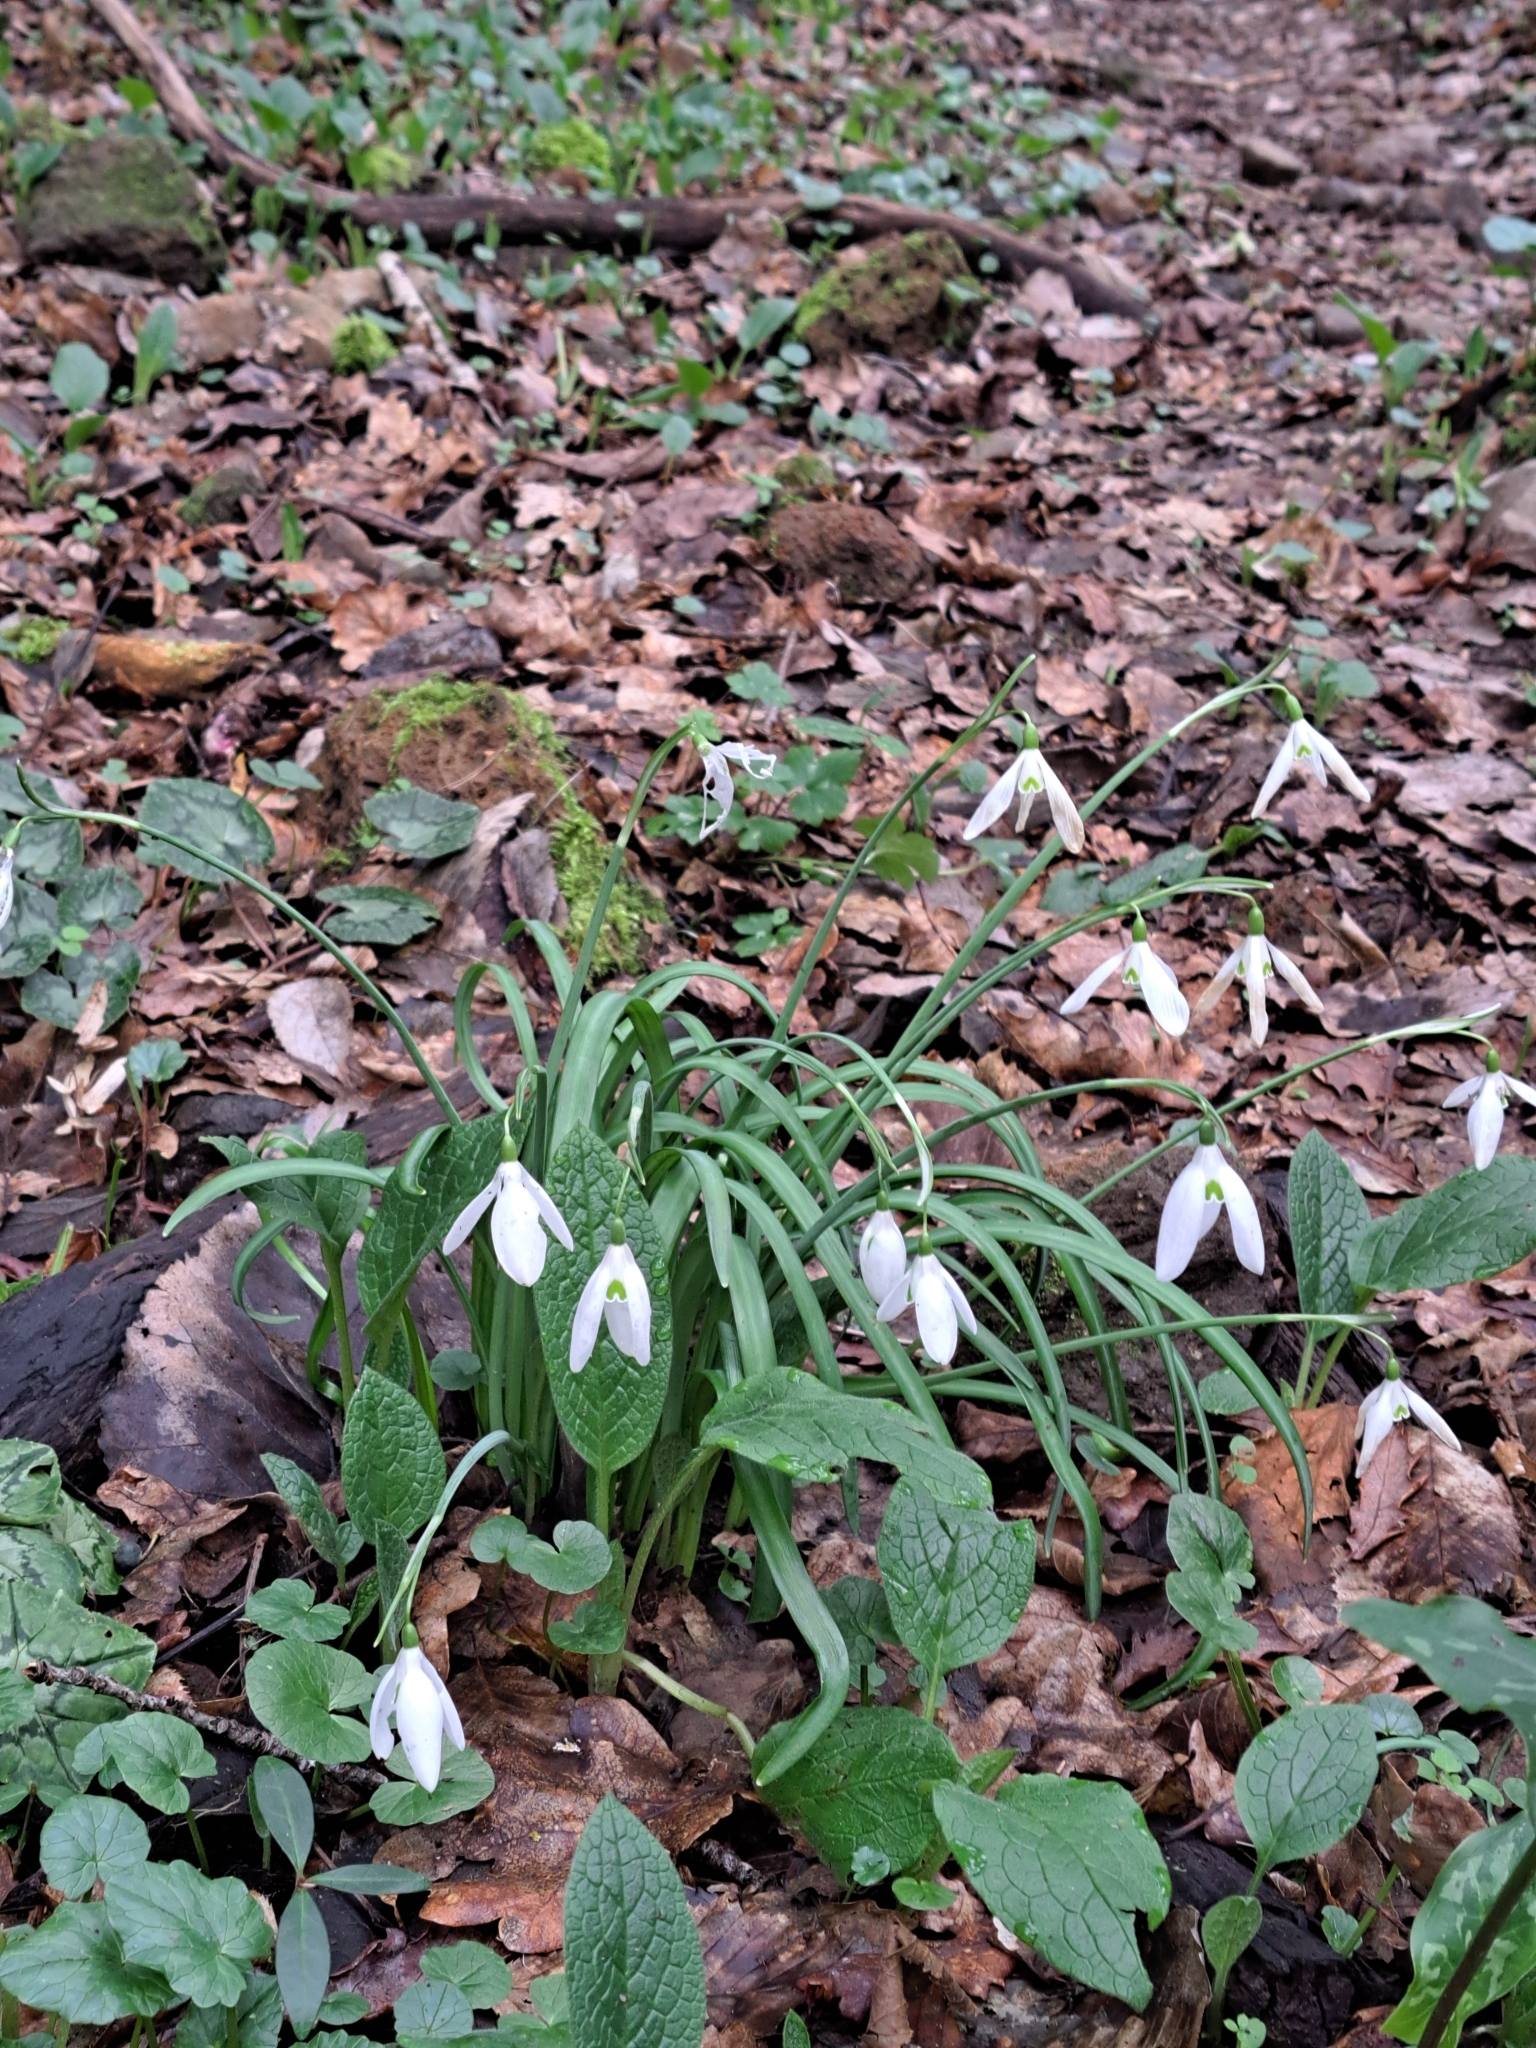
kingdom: Plantae
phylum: Tracheophyta
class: Liliopsida
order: Asparagales
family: Amaryllidaceae
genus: Galanthus
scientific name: Galanthus nivalis
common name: Snowdrop
